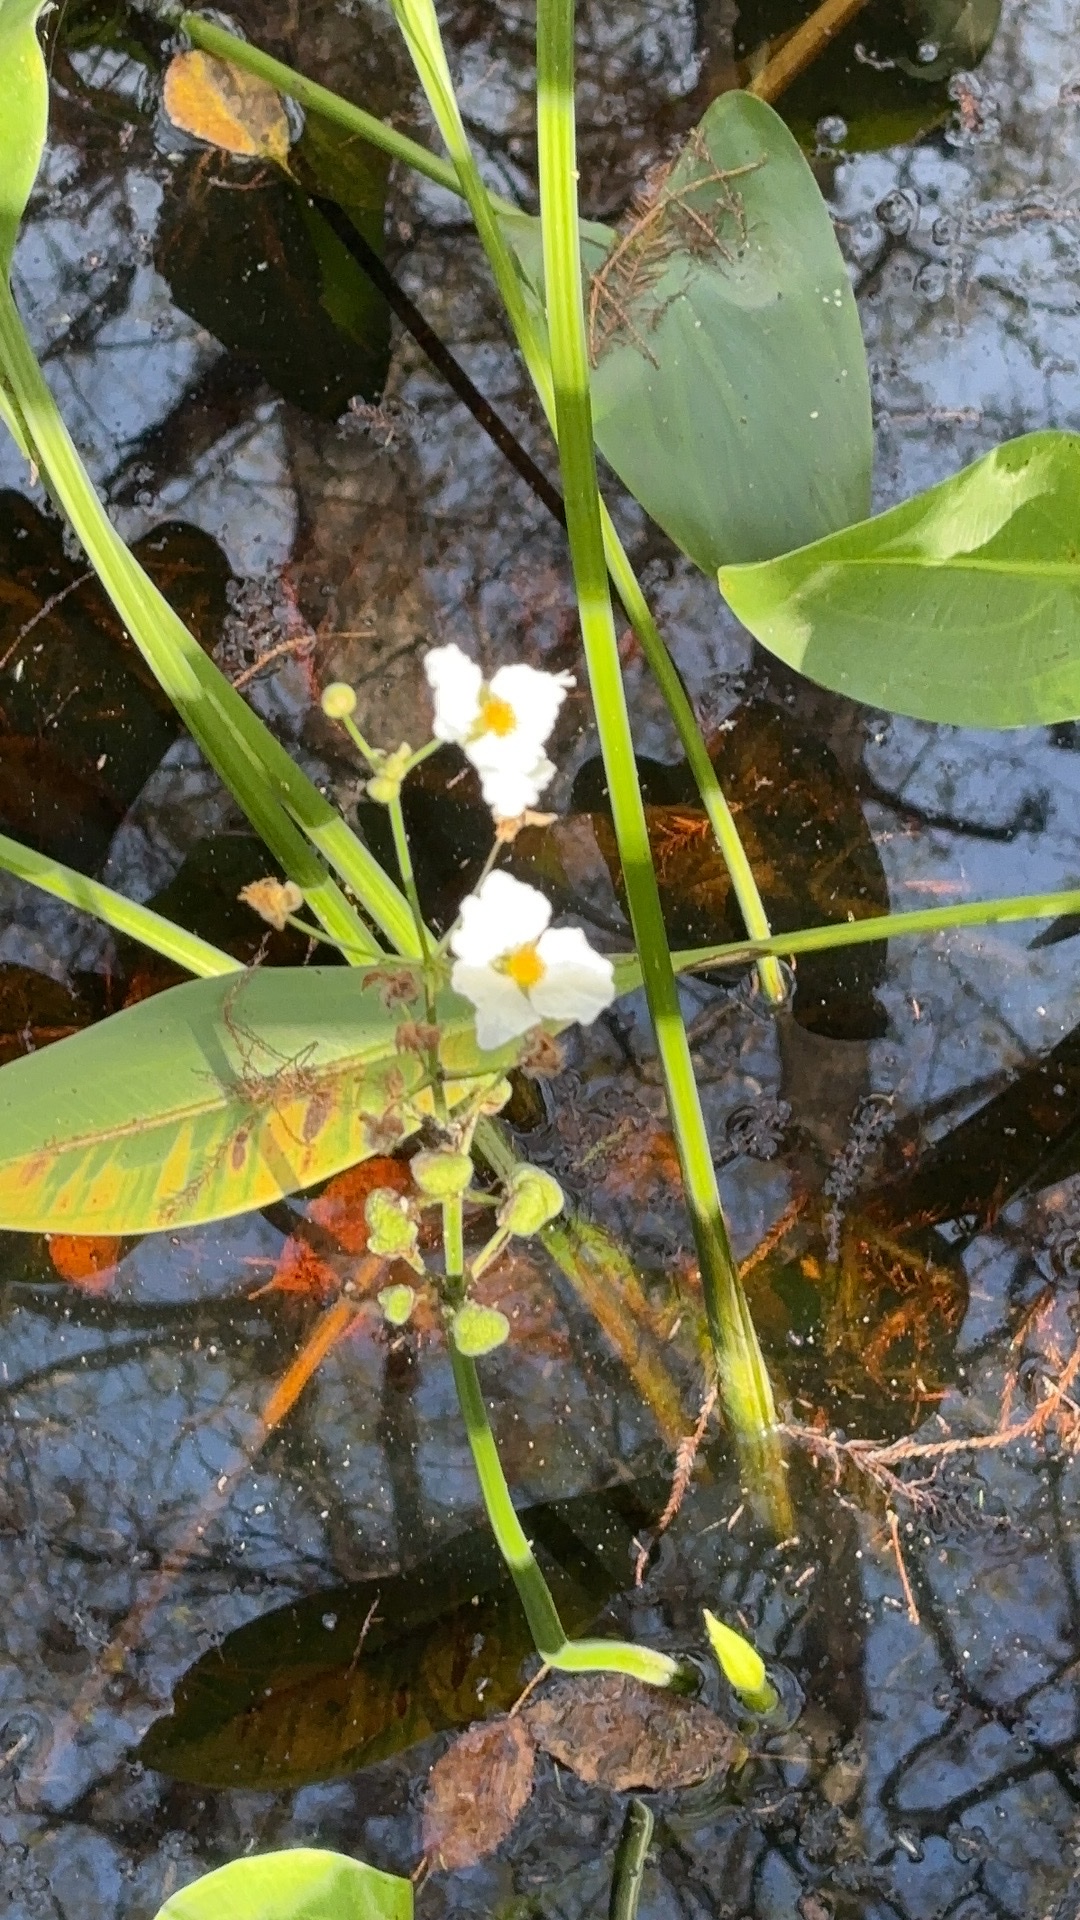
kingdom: Plantae
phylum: Tracheophyta
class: Liliopsida
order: Alismatales
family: Alismataceae
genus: Sagittaria
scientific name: Sagittaria lancifolia
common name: Lance-leaf arrowhead
